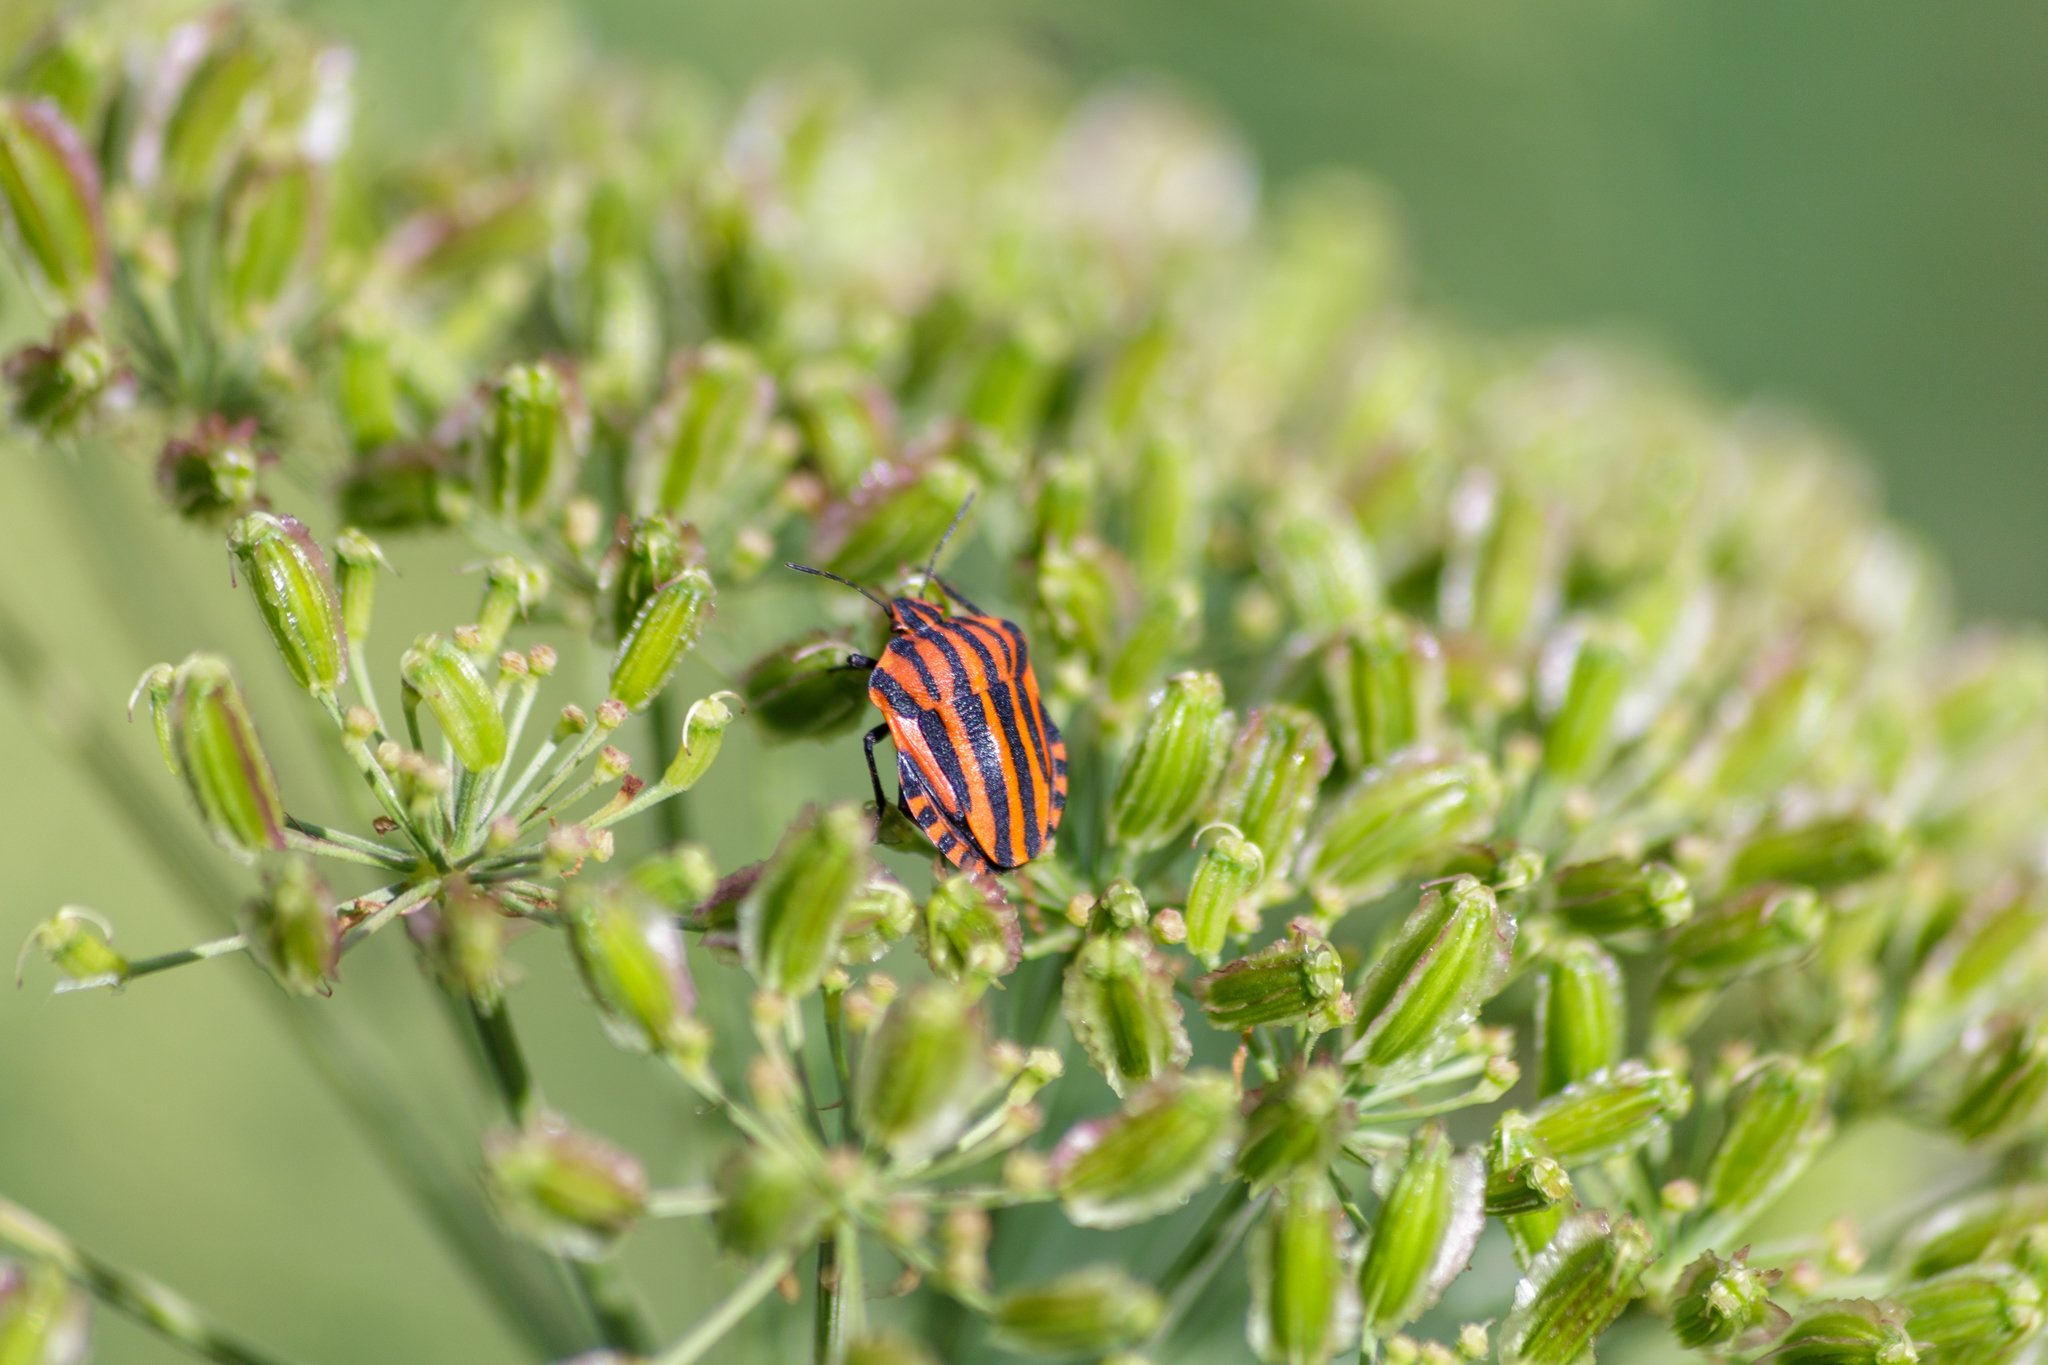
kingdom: Animalia
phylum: Arthropoda
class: Insecta
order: Hemiptera
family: Pentatomidae
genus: Graphosoma
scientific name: Graphosoma italicum
